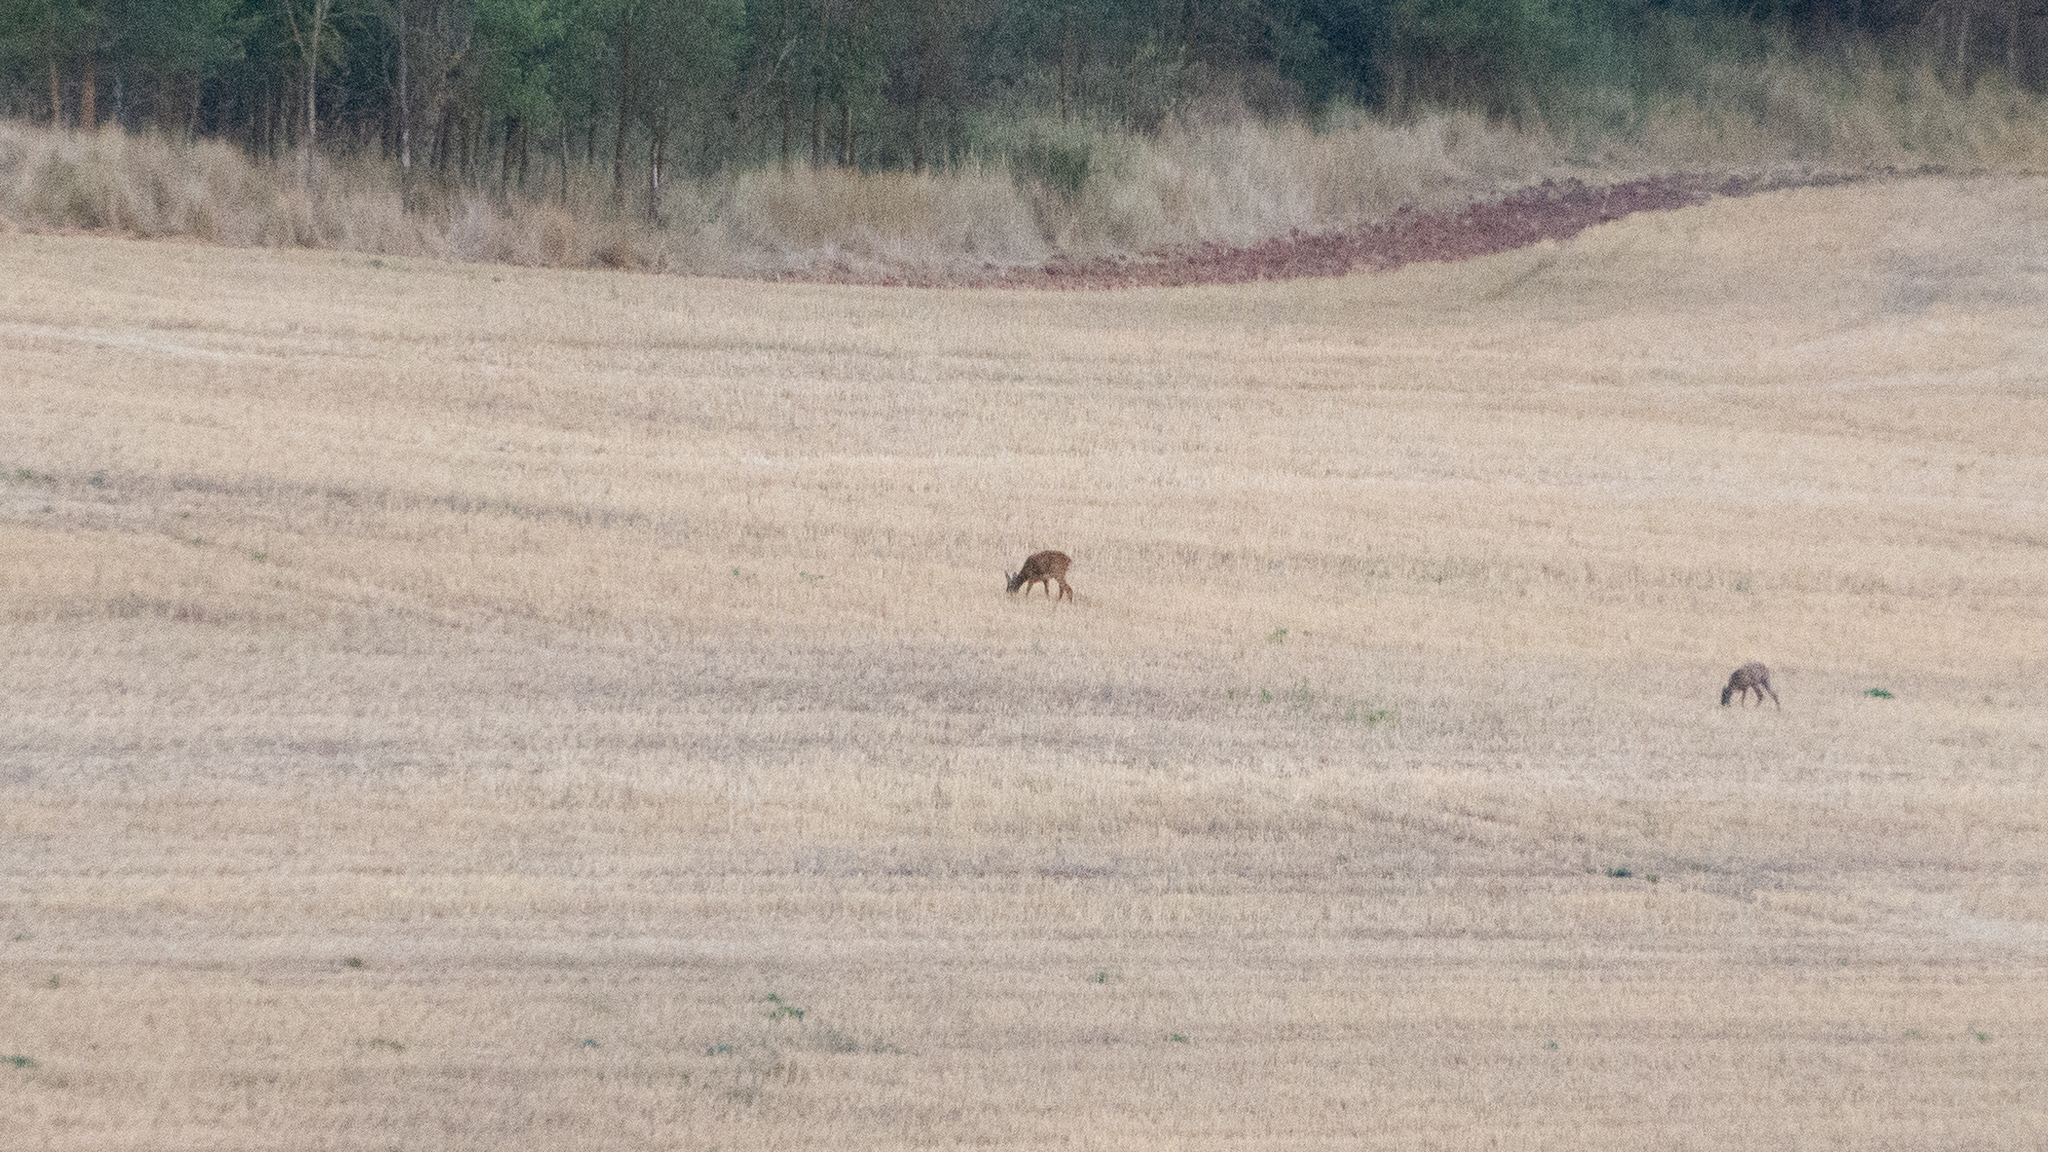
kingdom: Animalia
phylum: Chordata
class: Mammalia
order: Artiodactyla
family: Cervidae
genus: Capreolus
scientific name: Capreolus capreolus
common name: Western roe deer
